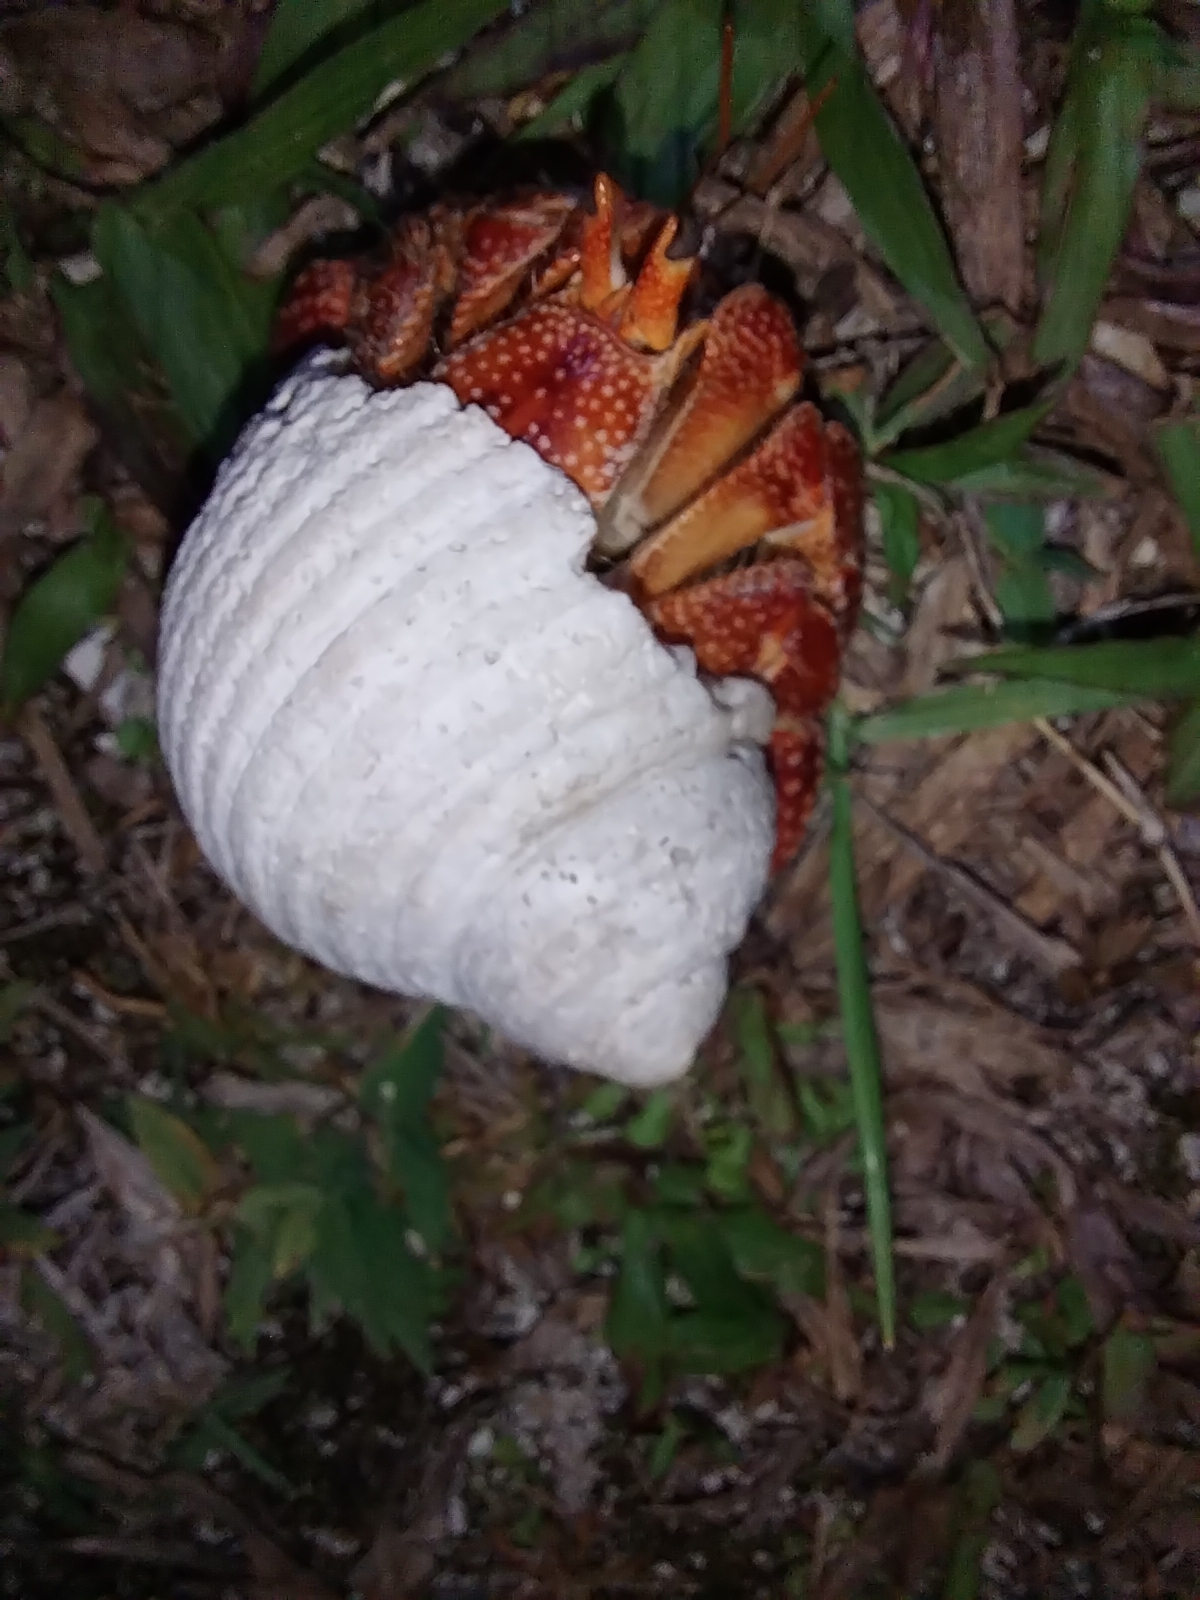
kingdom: Animalia
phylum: Arthropoda
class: Malacostraca
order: Decapoda
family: Coenobitidae
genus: Coenobita
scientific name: Coenobita perlatus
